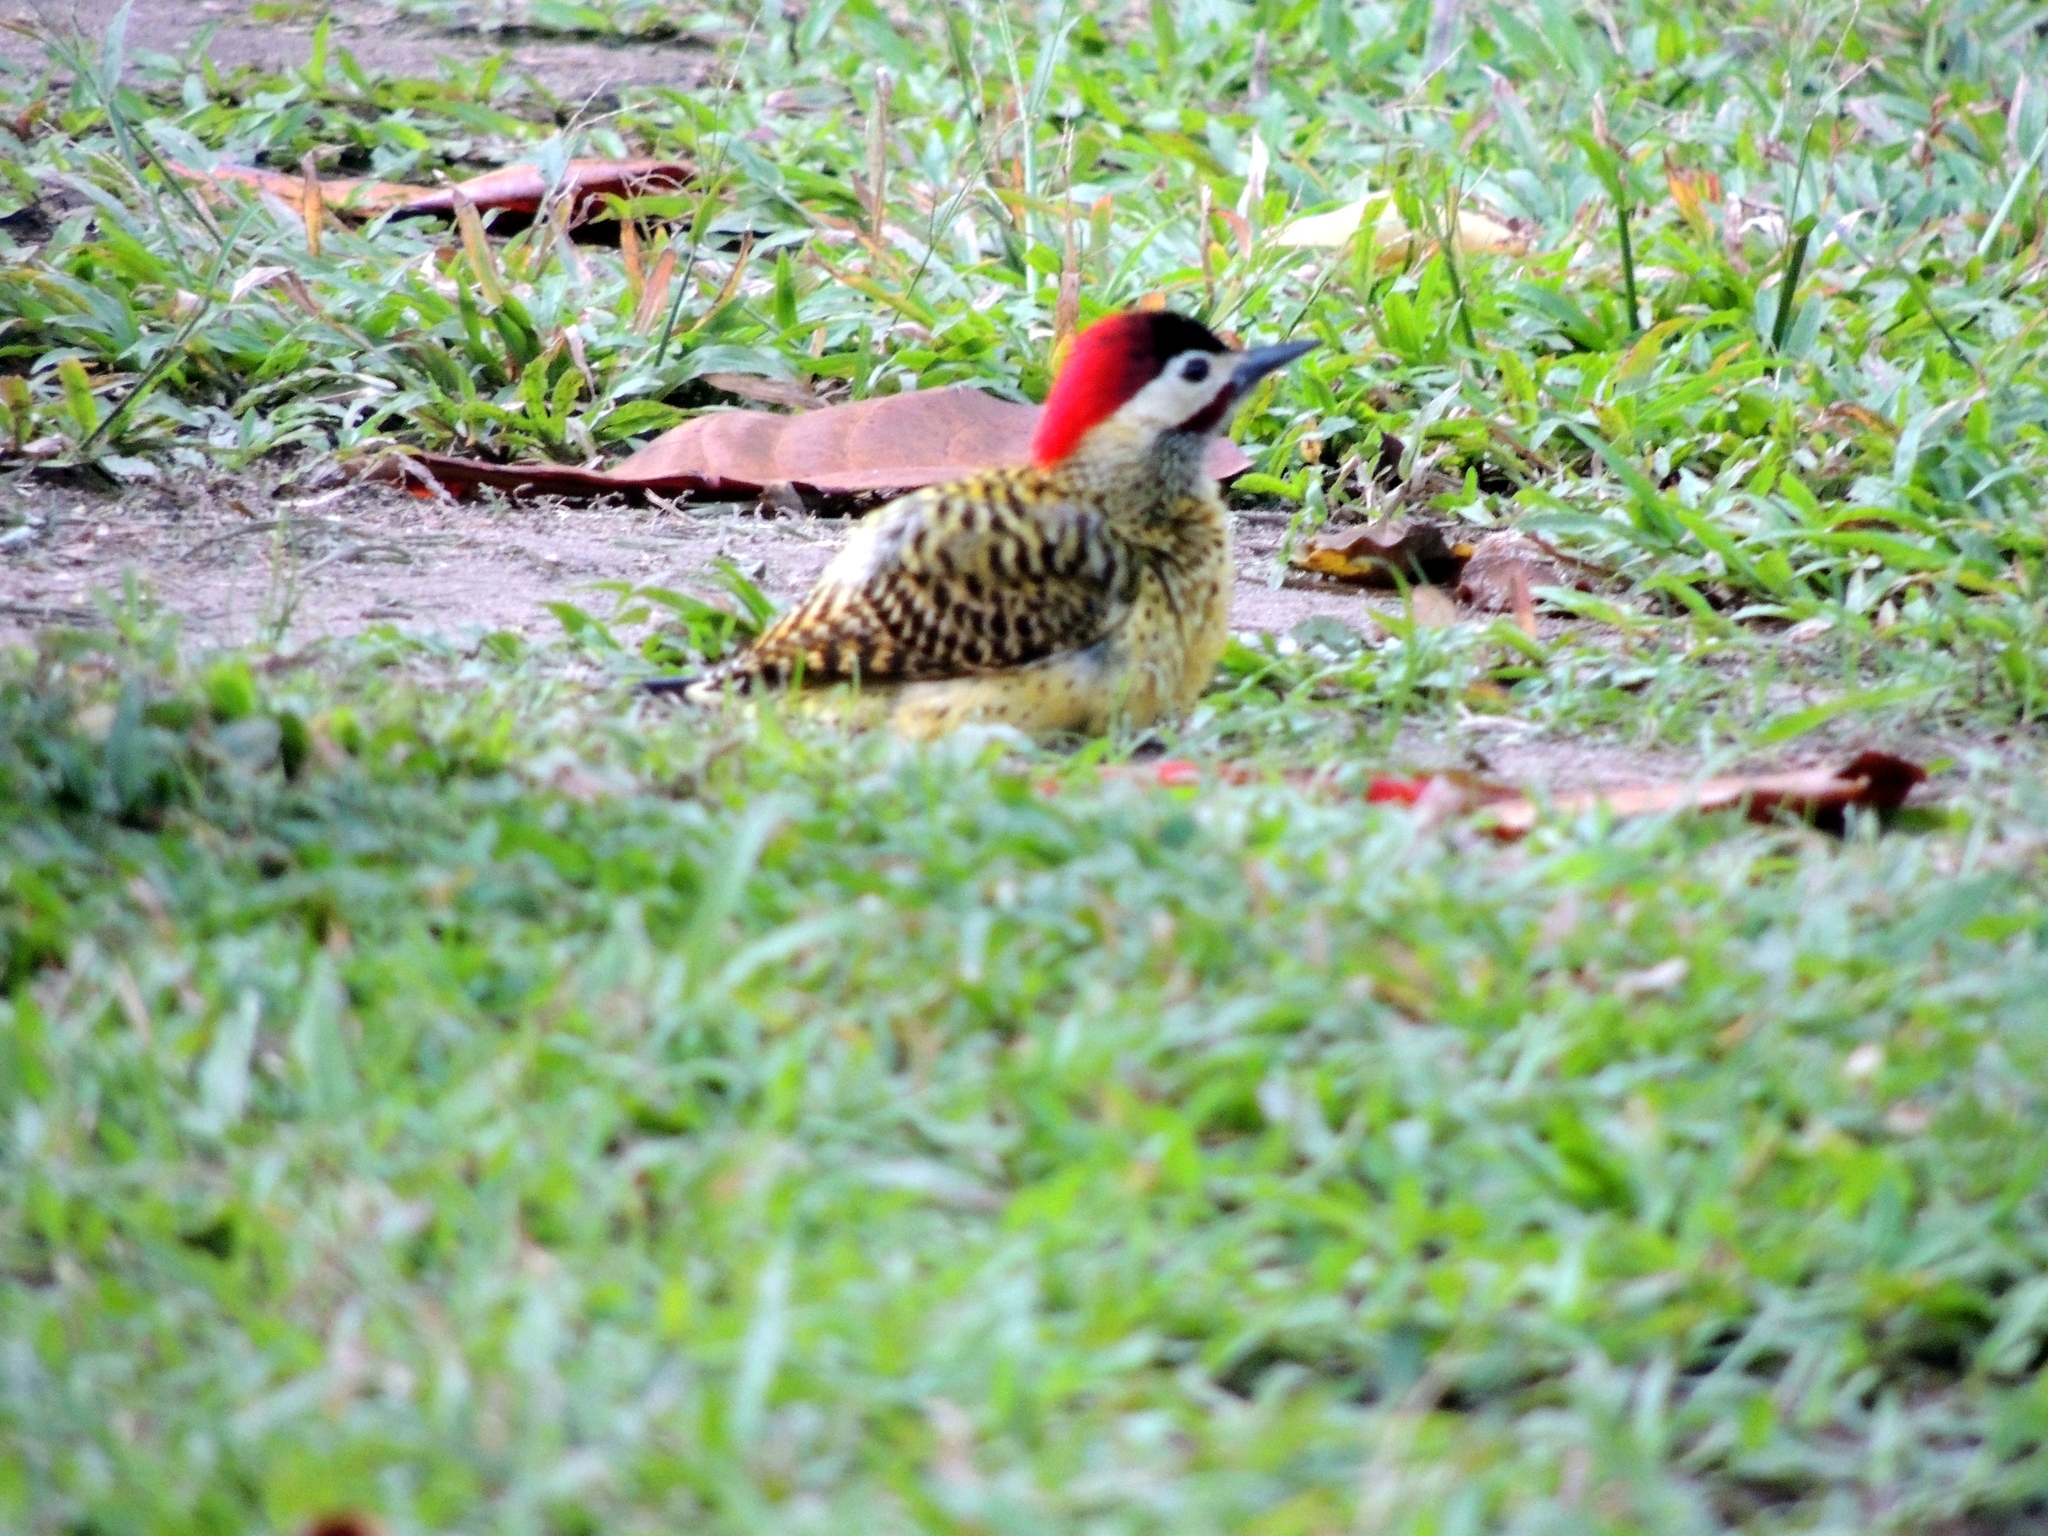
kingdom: Animalia
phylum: Chordata
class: Aves
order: Piciformes
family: Picidae
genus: Colaptes
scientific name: Colaptes melanochloros
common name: Green-barred woodpecker
